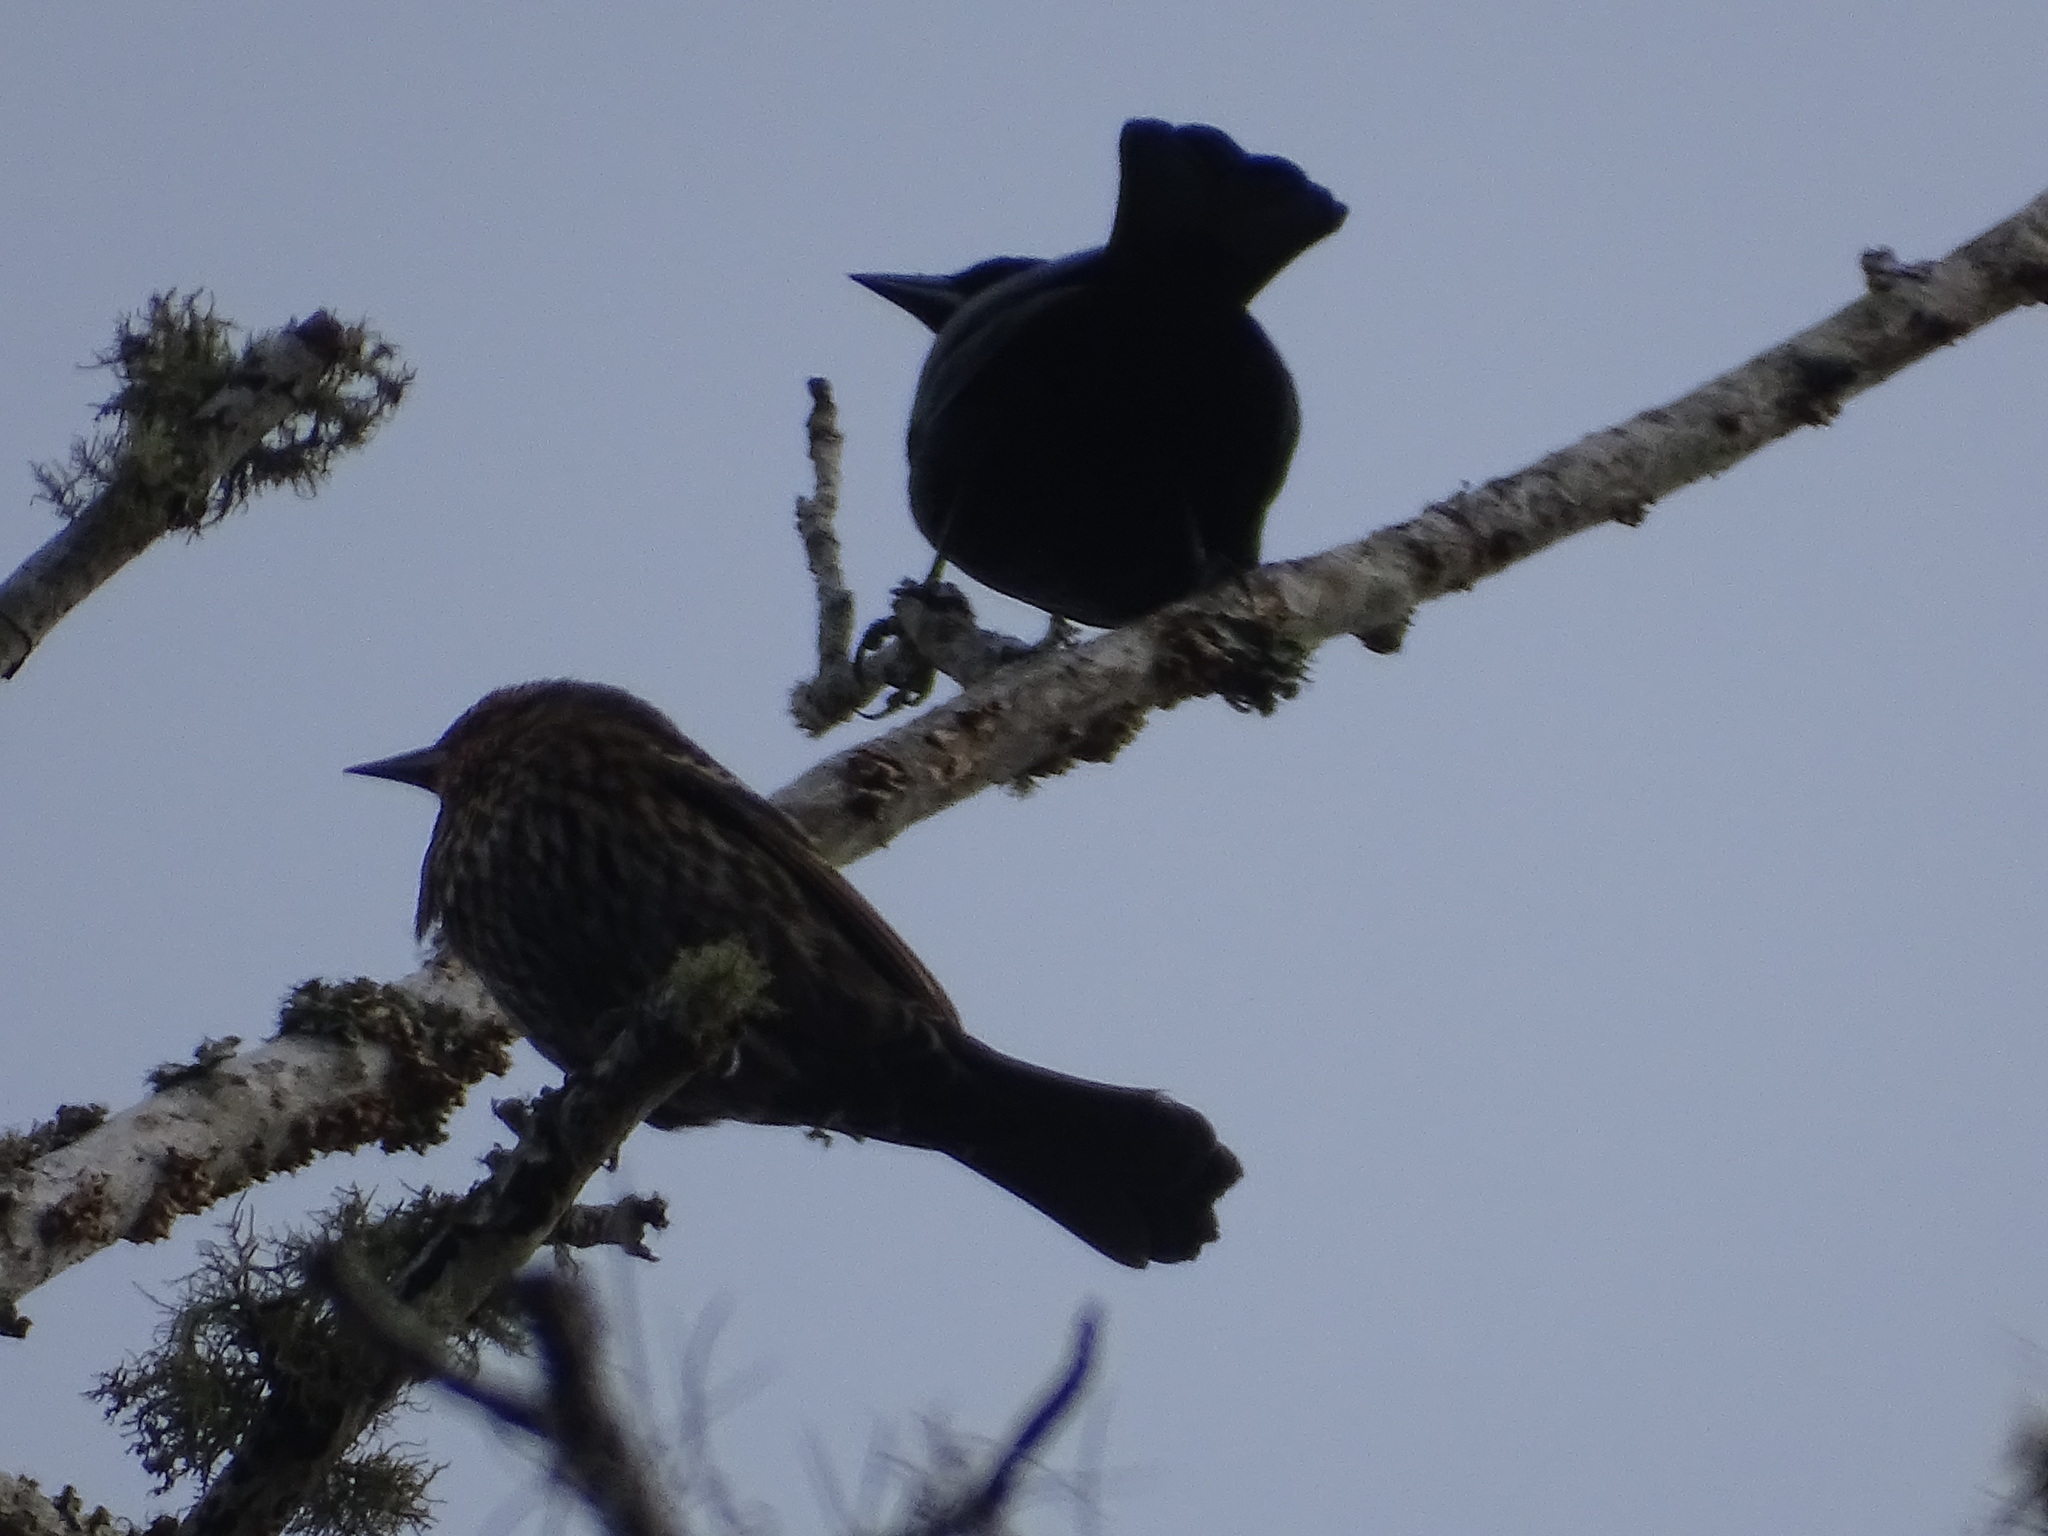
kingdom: Animalia
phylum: Chordata
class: Aves
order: Passeriformes
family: Icteridae
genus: Agelaius
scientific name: Agelaius phoeniceus
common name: Red-winged blackbird
